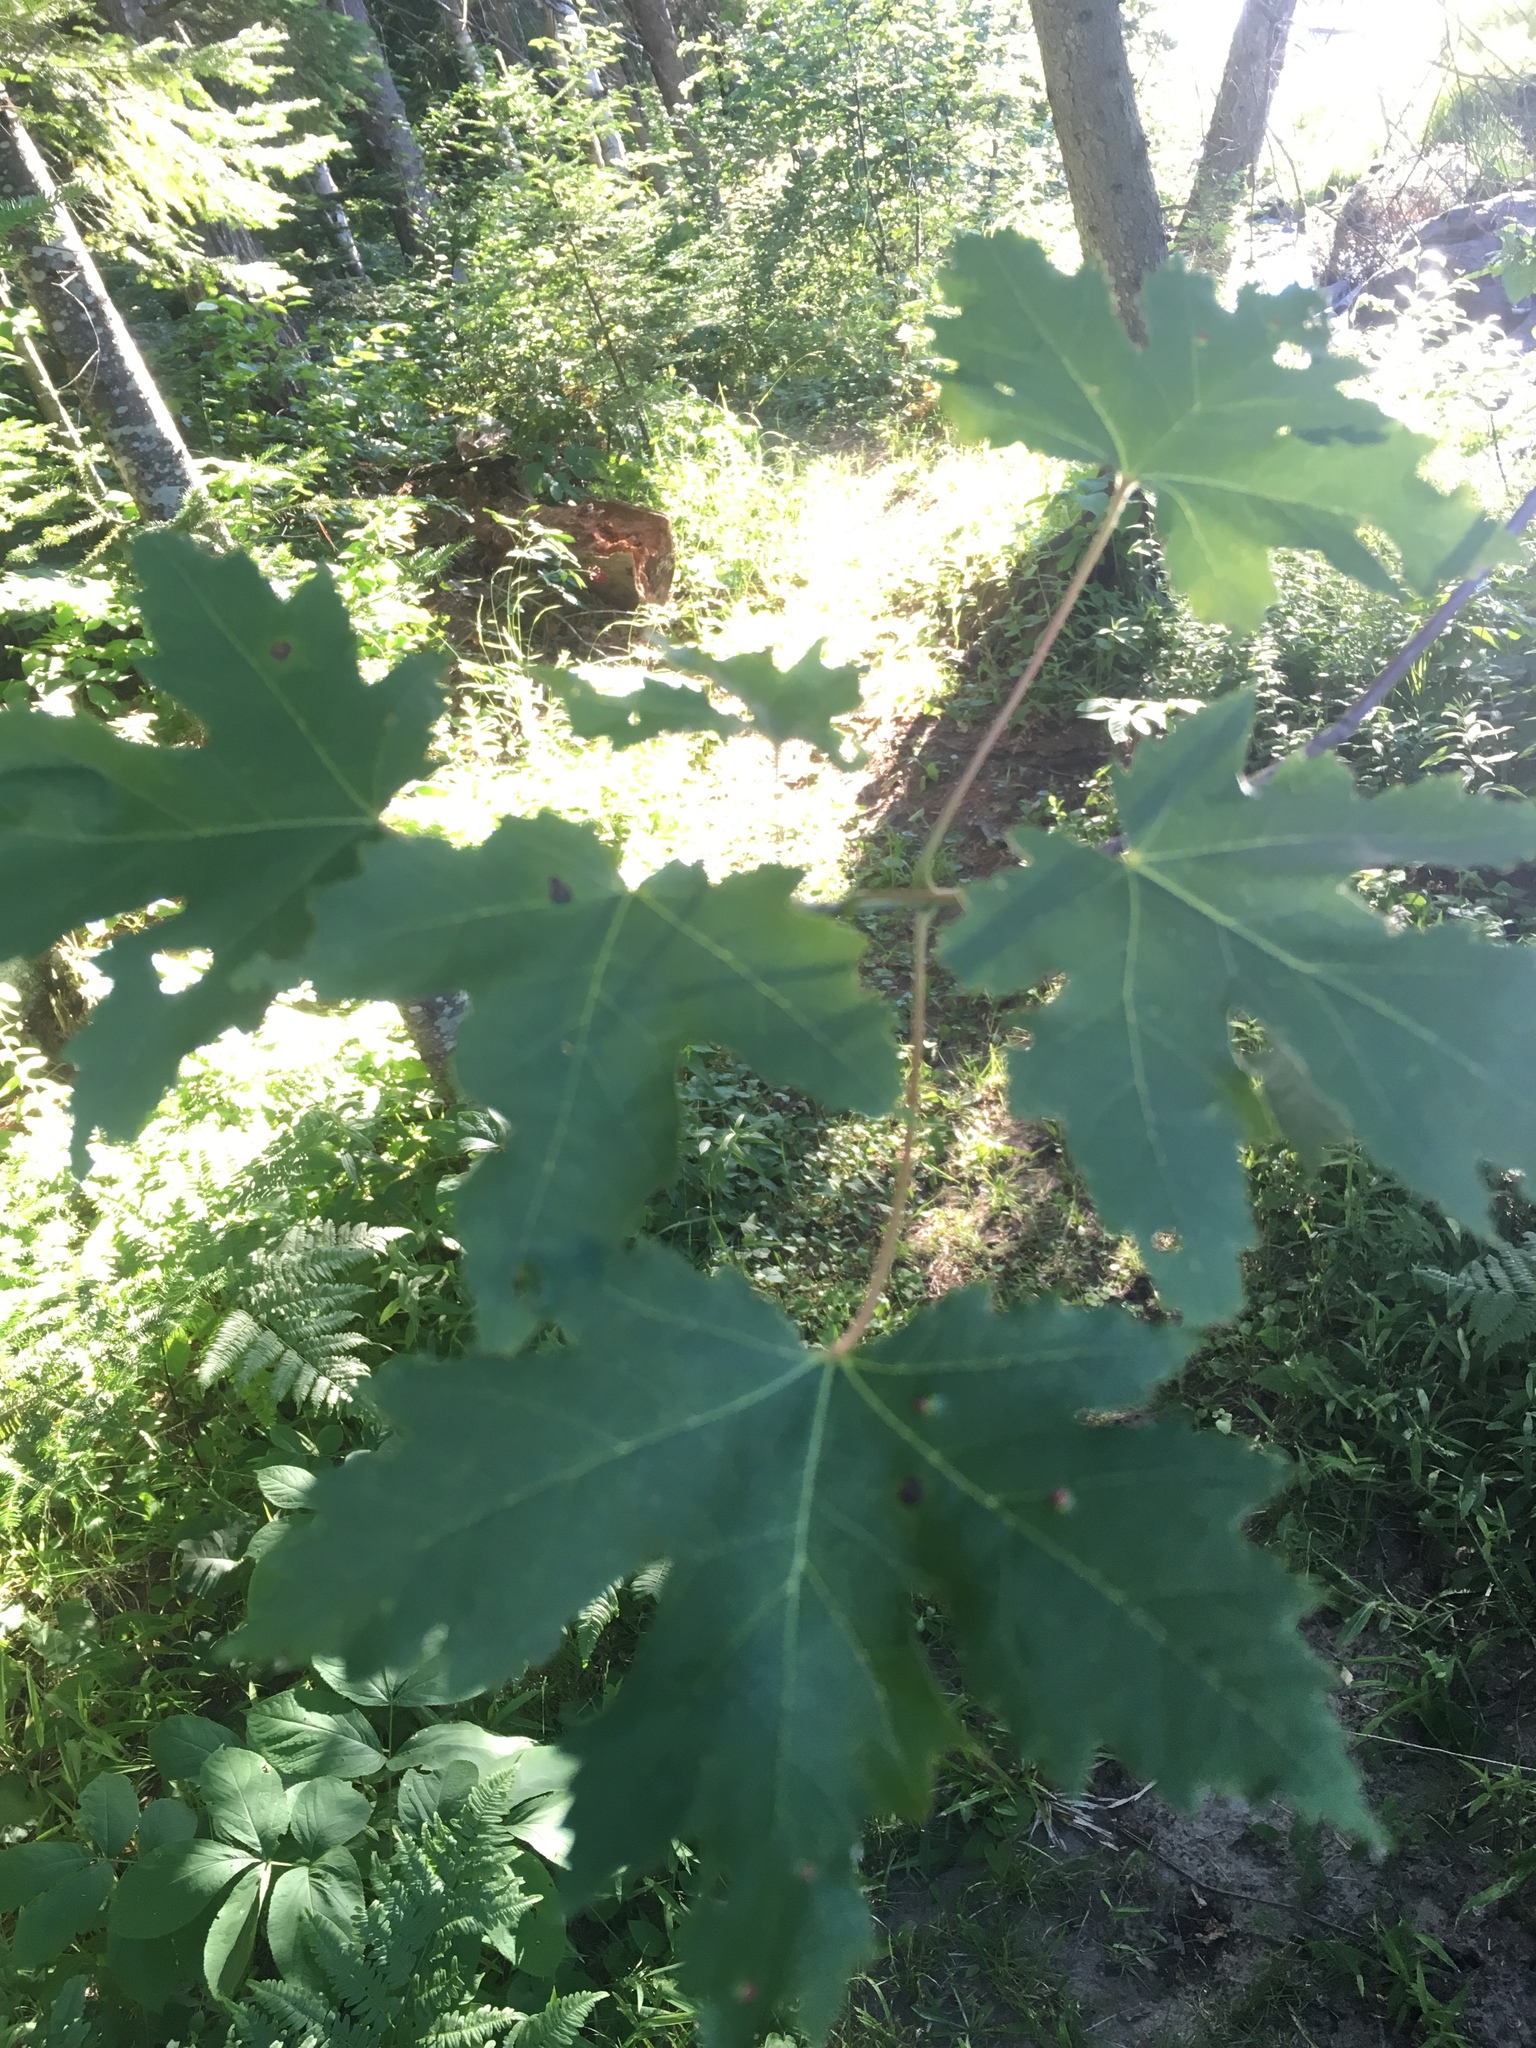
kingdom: Plantae
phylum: Tracheophyta
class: Magnoliopsida
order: Sapindales
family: Sapindaceae
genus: Acer
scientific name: Acer freemanii
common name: Freeman maple
